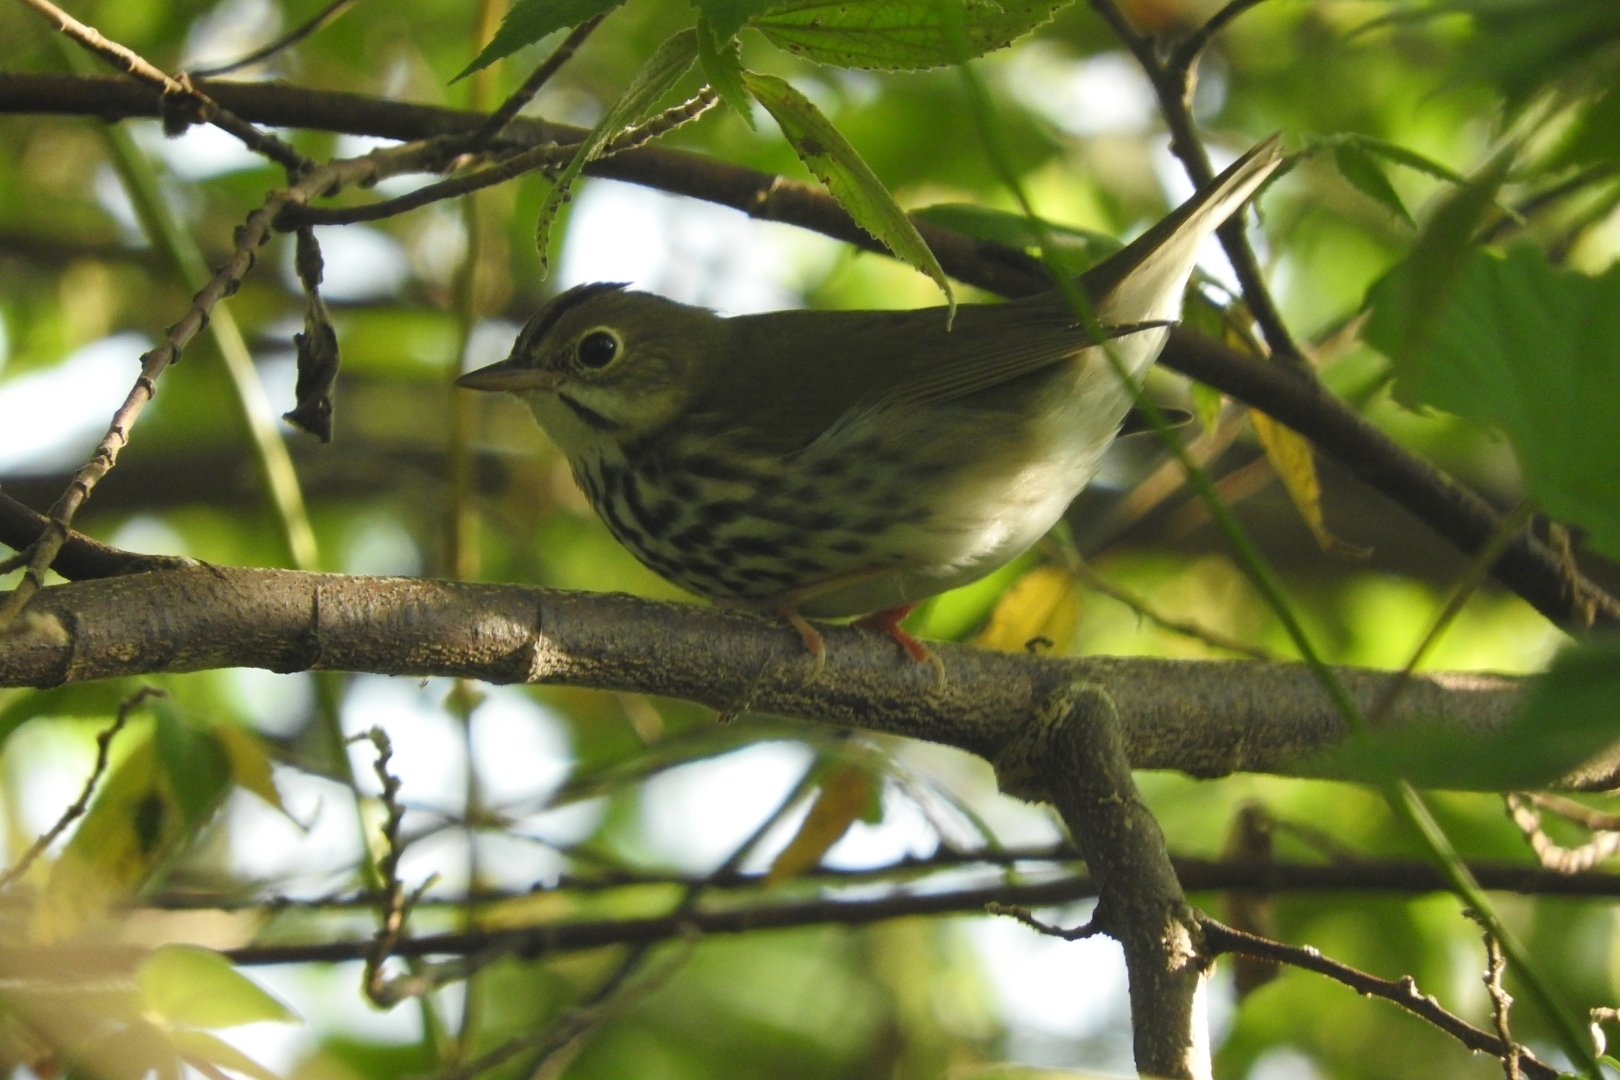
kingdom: Animalia
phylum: Chordata
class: Aves
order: Passeriformes
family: Parulidae
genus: Seiurus
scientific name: Seiurus aurocapilla
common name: Ovenbird
